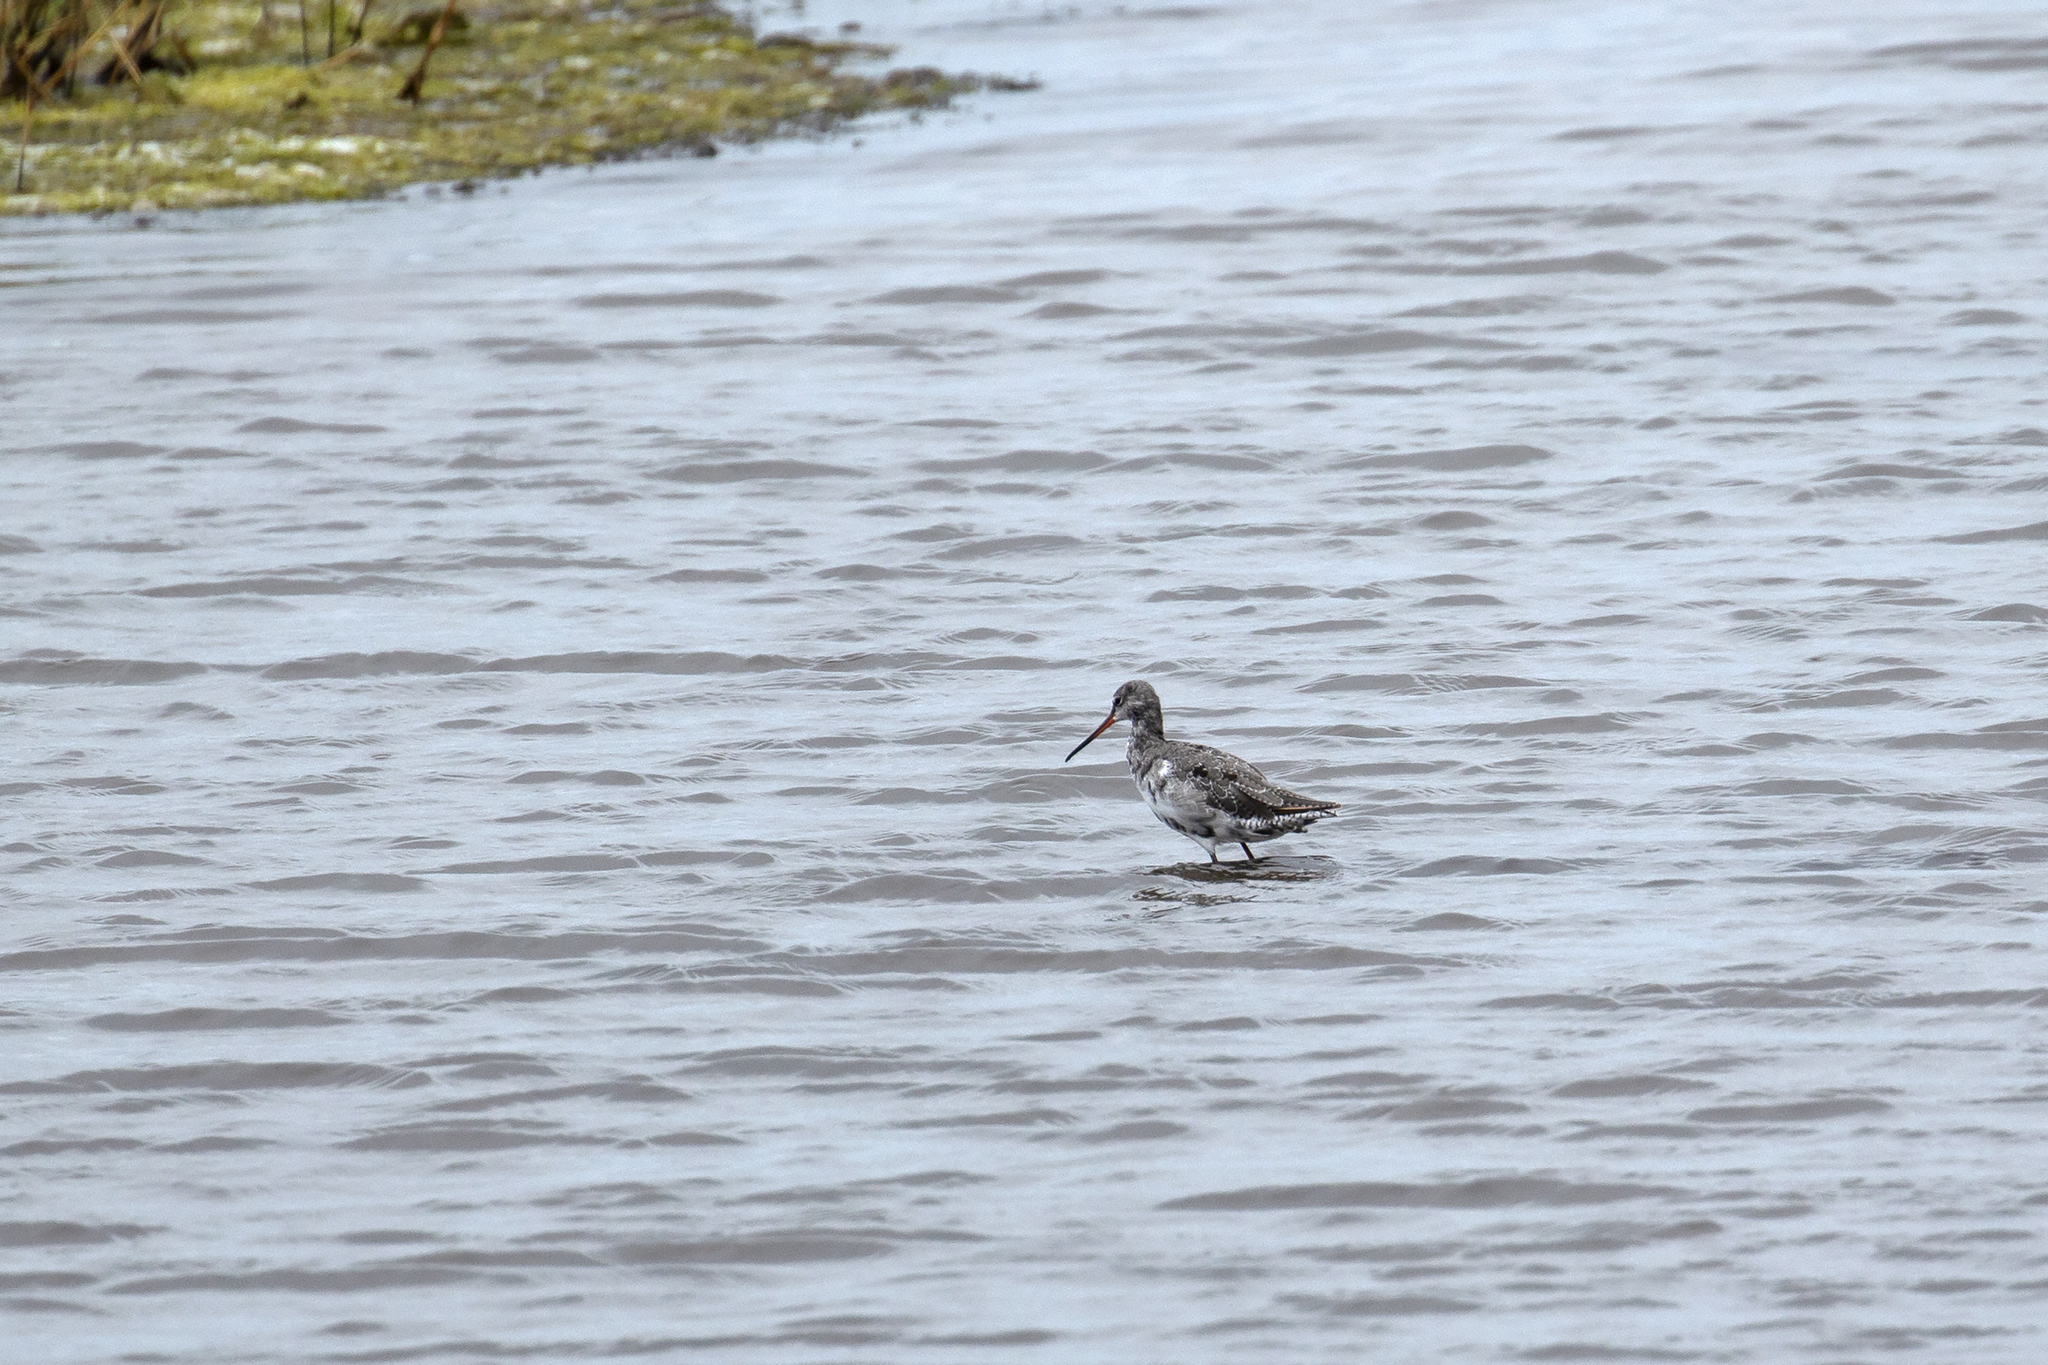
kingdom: Animalia
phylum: Chordata
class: Aves
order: Charadriiformes
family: Scolopacidae
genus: Tringa
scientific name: Tringa erythropus
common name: Spotted redshank
